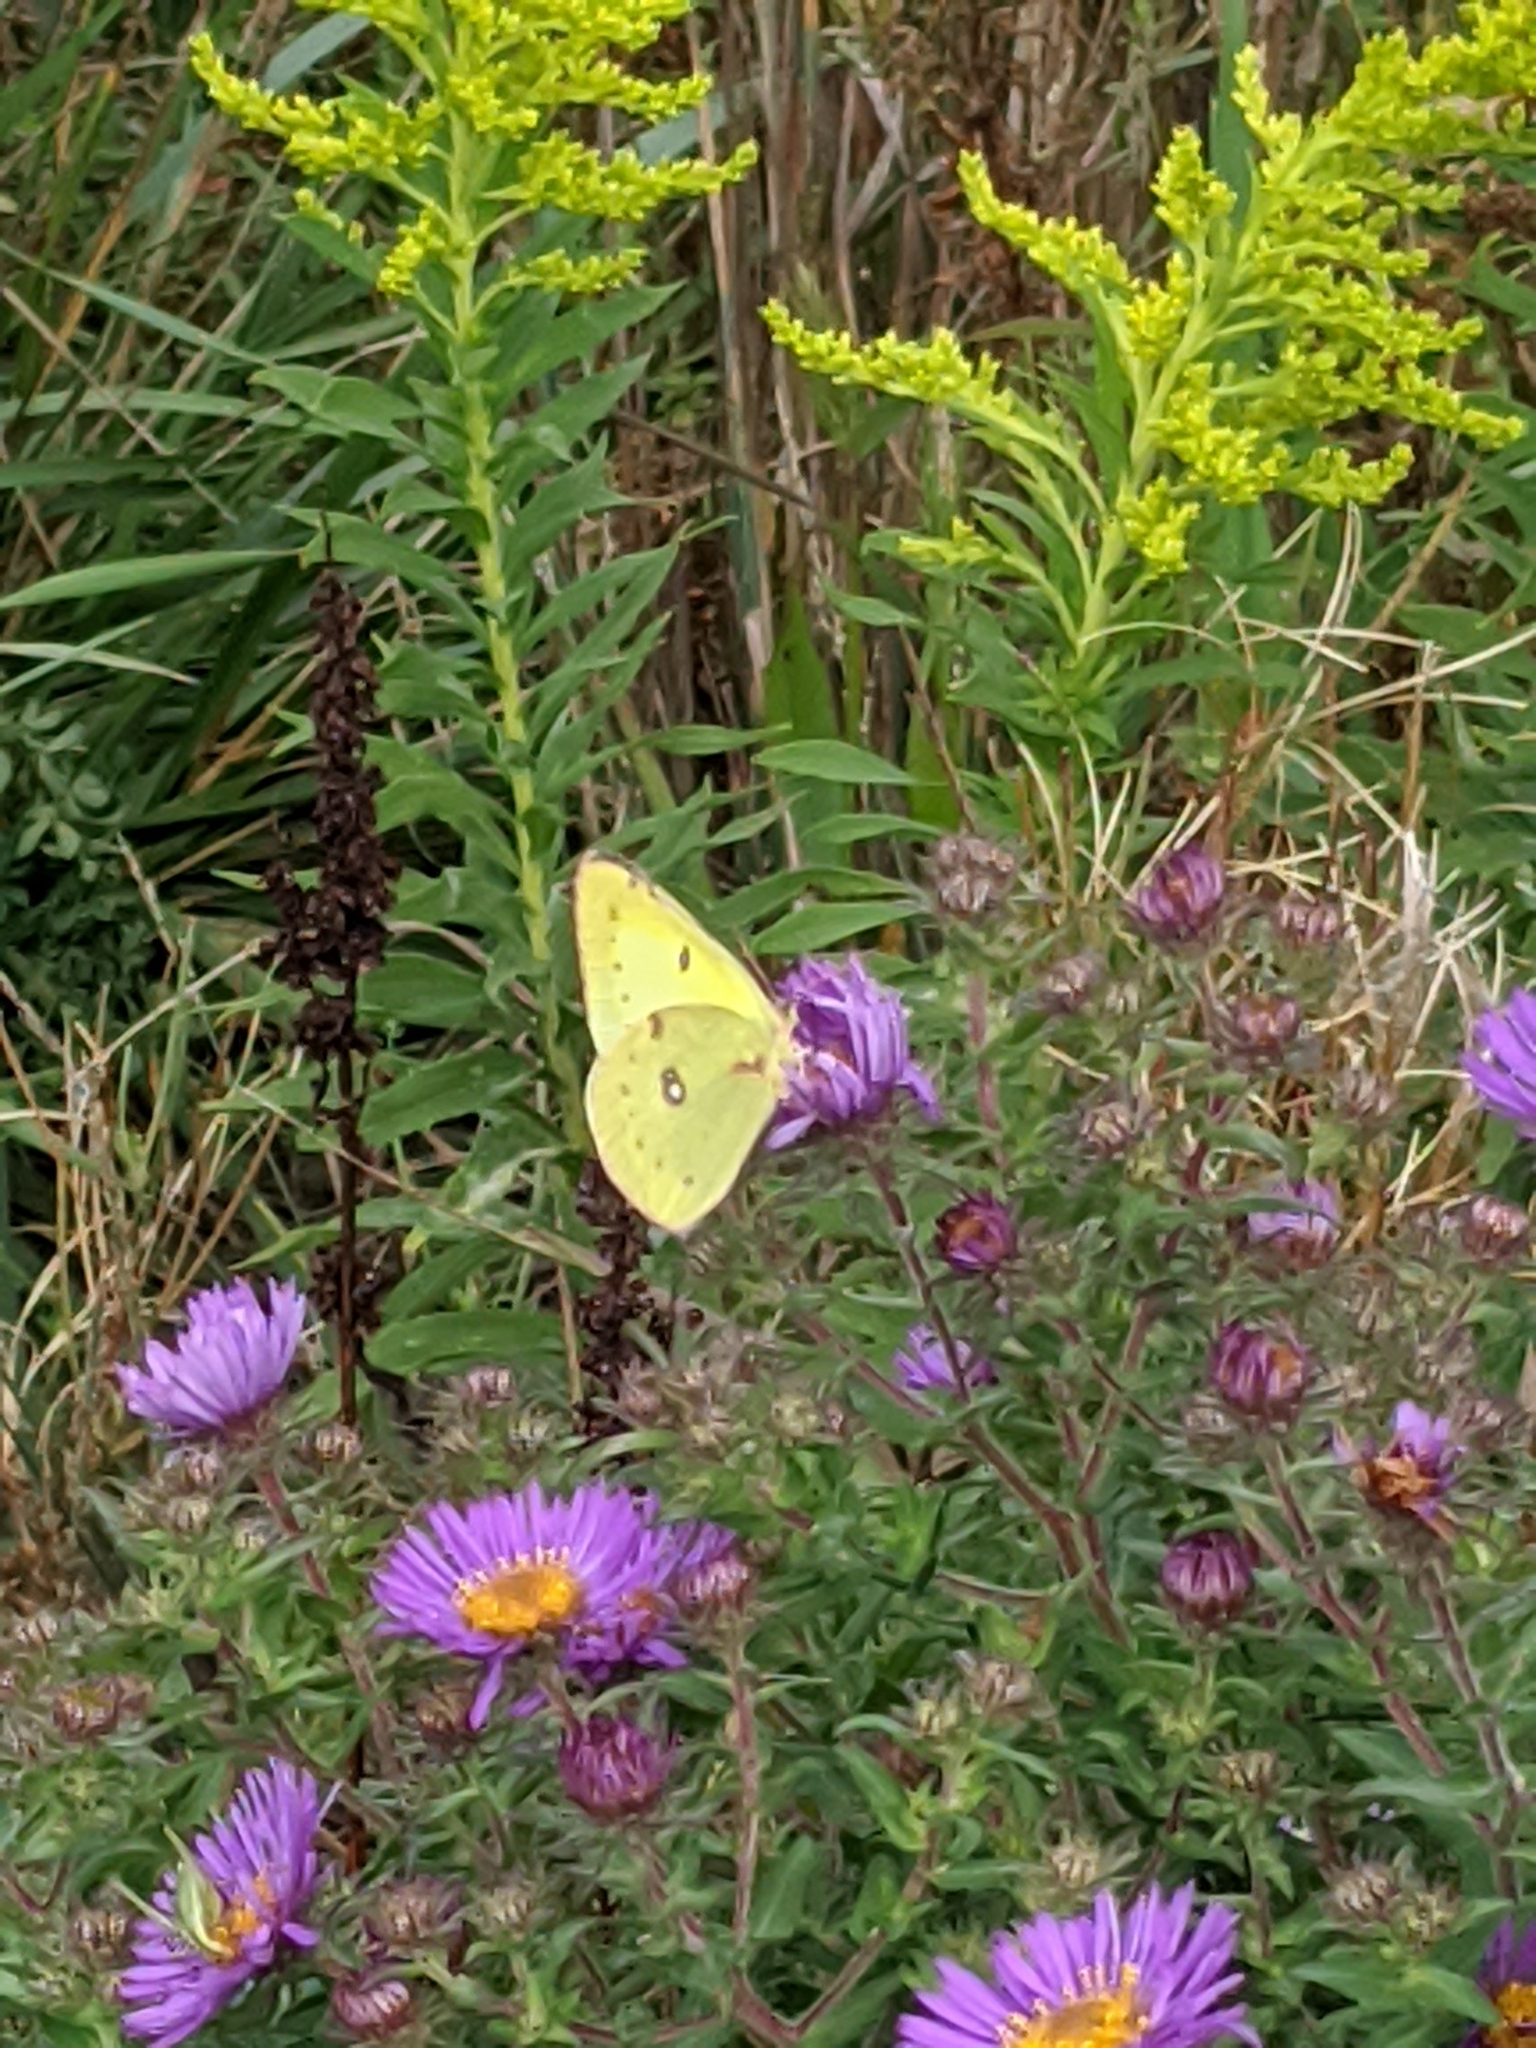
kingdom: Animalia
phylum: Arthropoda
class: Insecta
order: Lepidoptera
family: Pieridae
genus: Colias
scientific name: Colias philodice
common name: Clouded sulphur
